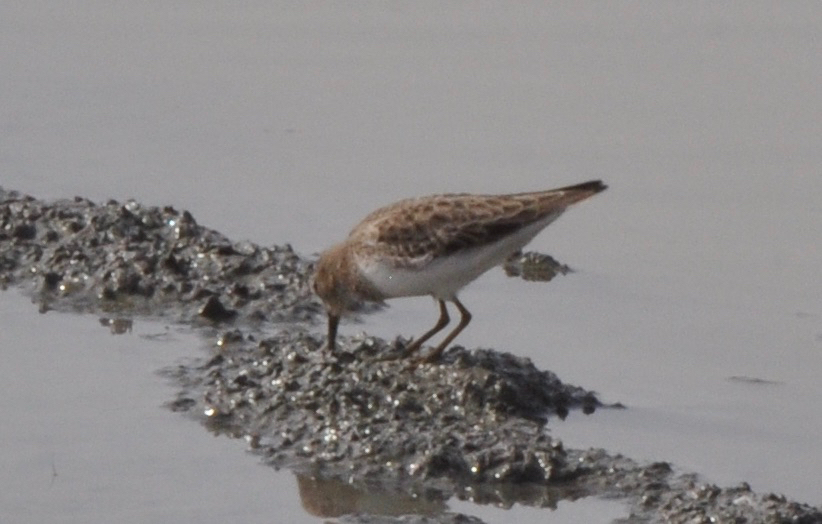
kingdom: Animalia
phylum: Chordata
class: Aves
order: Charadriiformes
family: Scolopacidae
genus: Calidris
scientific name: Calidris minutilla
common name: Least sandpiper
